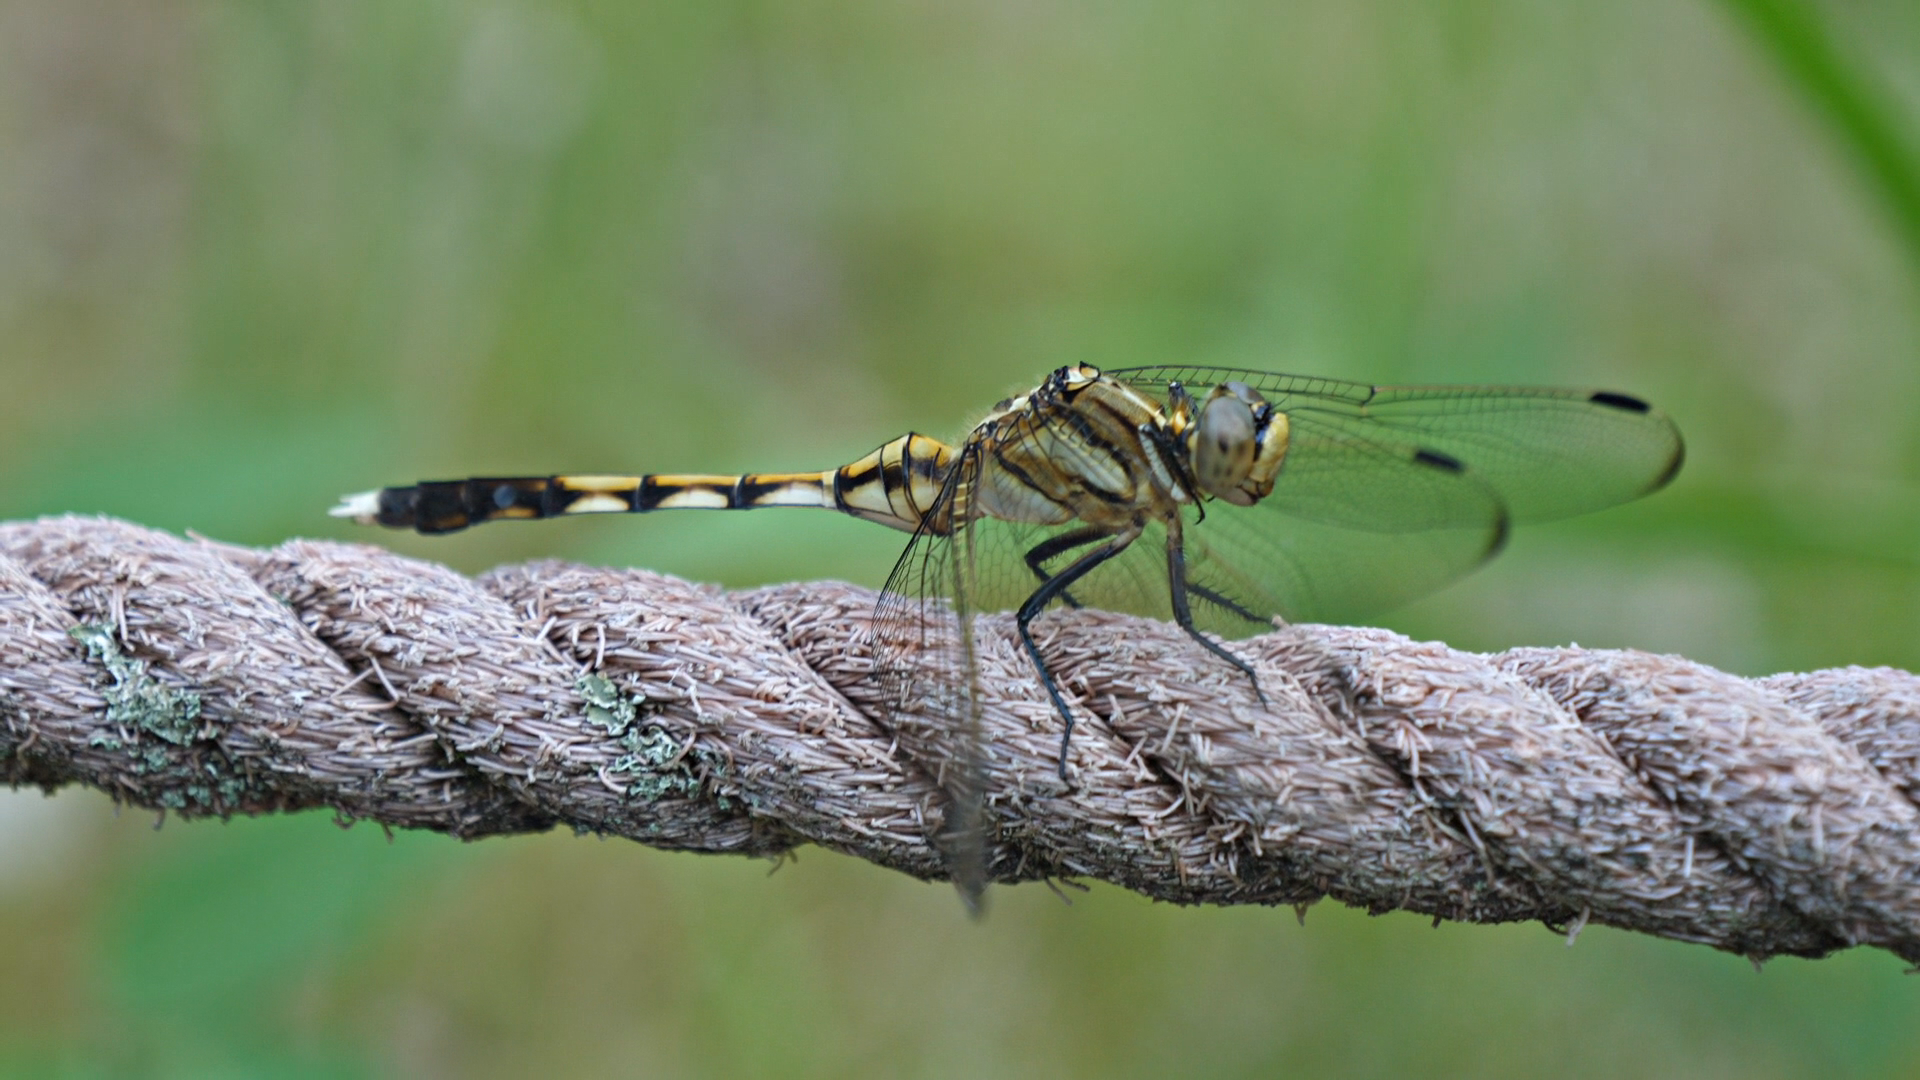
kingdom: Animalia
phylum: Arthropoda
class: Insecta
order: Odonata
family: Libellulidae
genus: Orthetrum
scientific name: Orthetrum albistylum
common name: White-tailed skimmer
